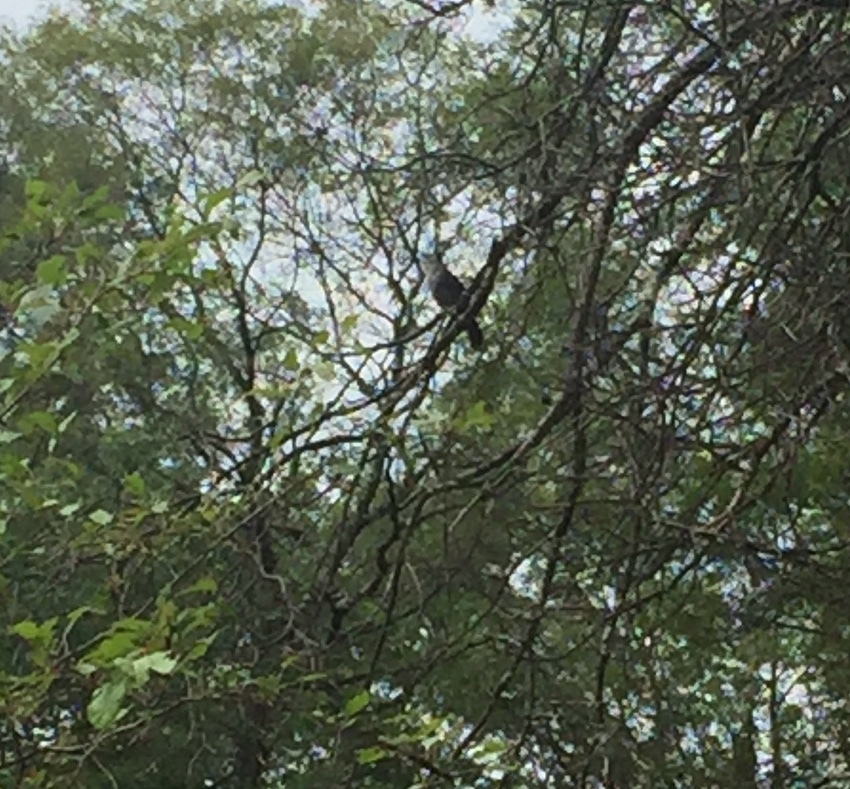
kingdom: Animalia
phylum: Chordata
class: Aves
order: Passeriformes
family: Mimidae
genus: Dumetella
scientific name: Dumetella carolinensis
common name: Gray catbird
